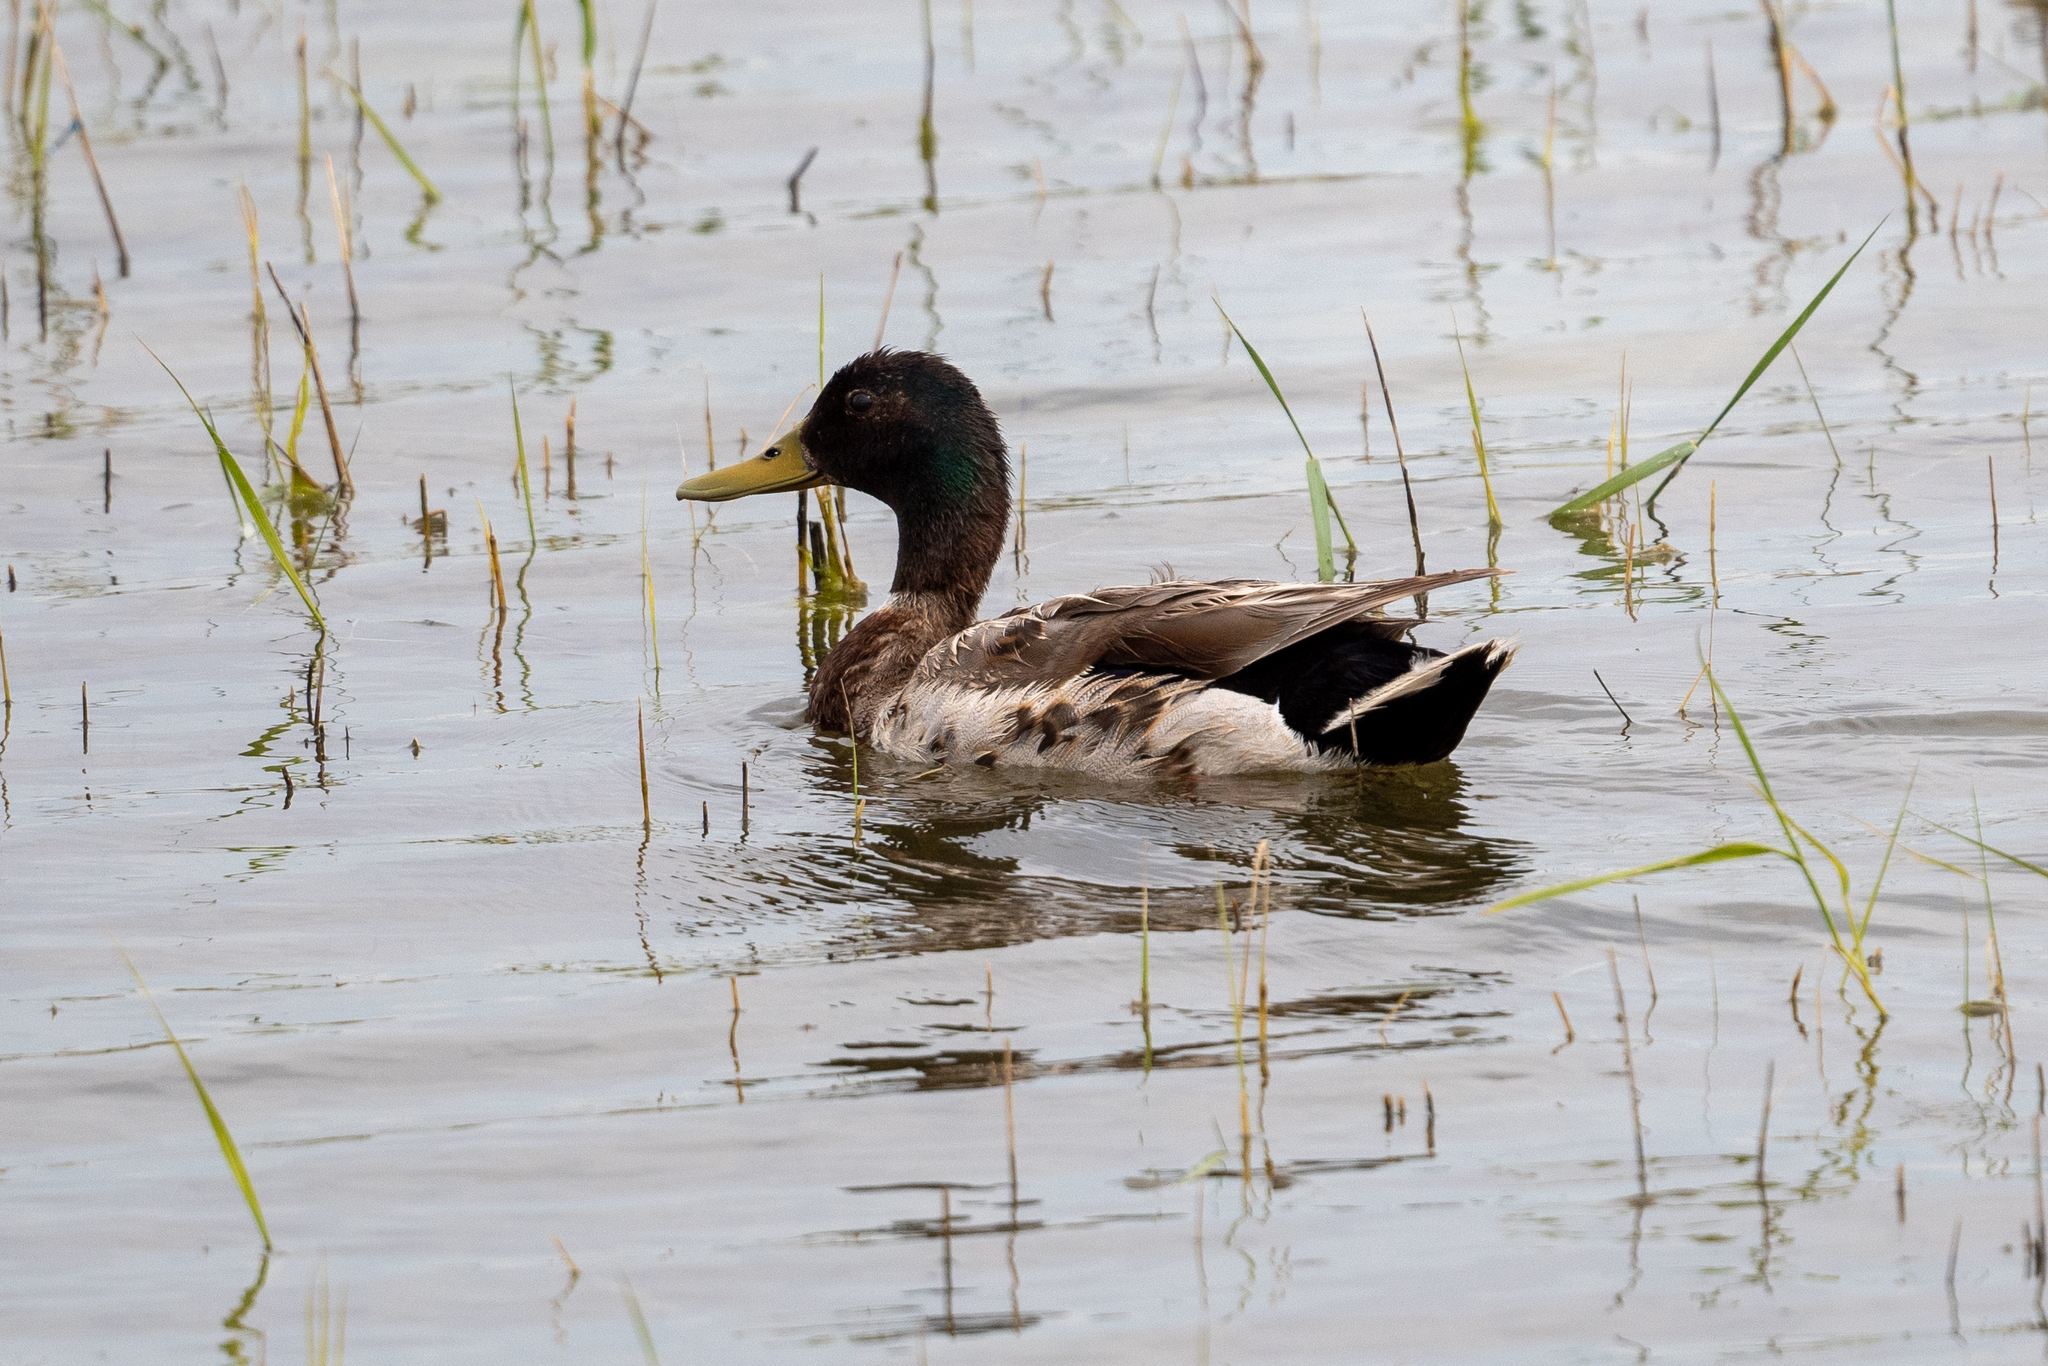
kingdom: Animalia
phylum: Chordata
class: Aves
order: Anseriformes
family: Anatidae
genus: Anas
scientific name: Anas platyrhynchos
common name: Mallard
